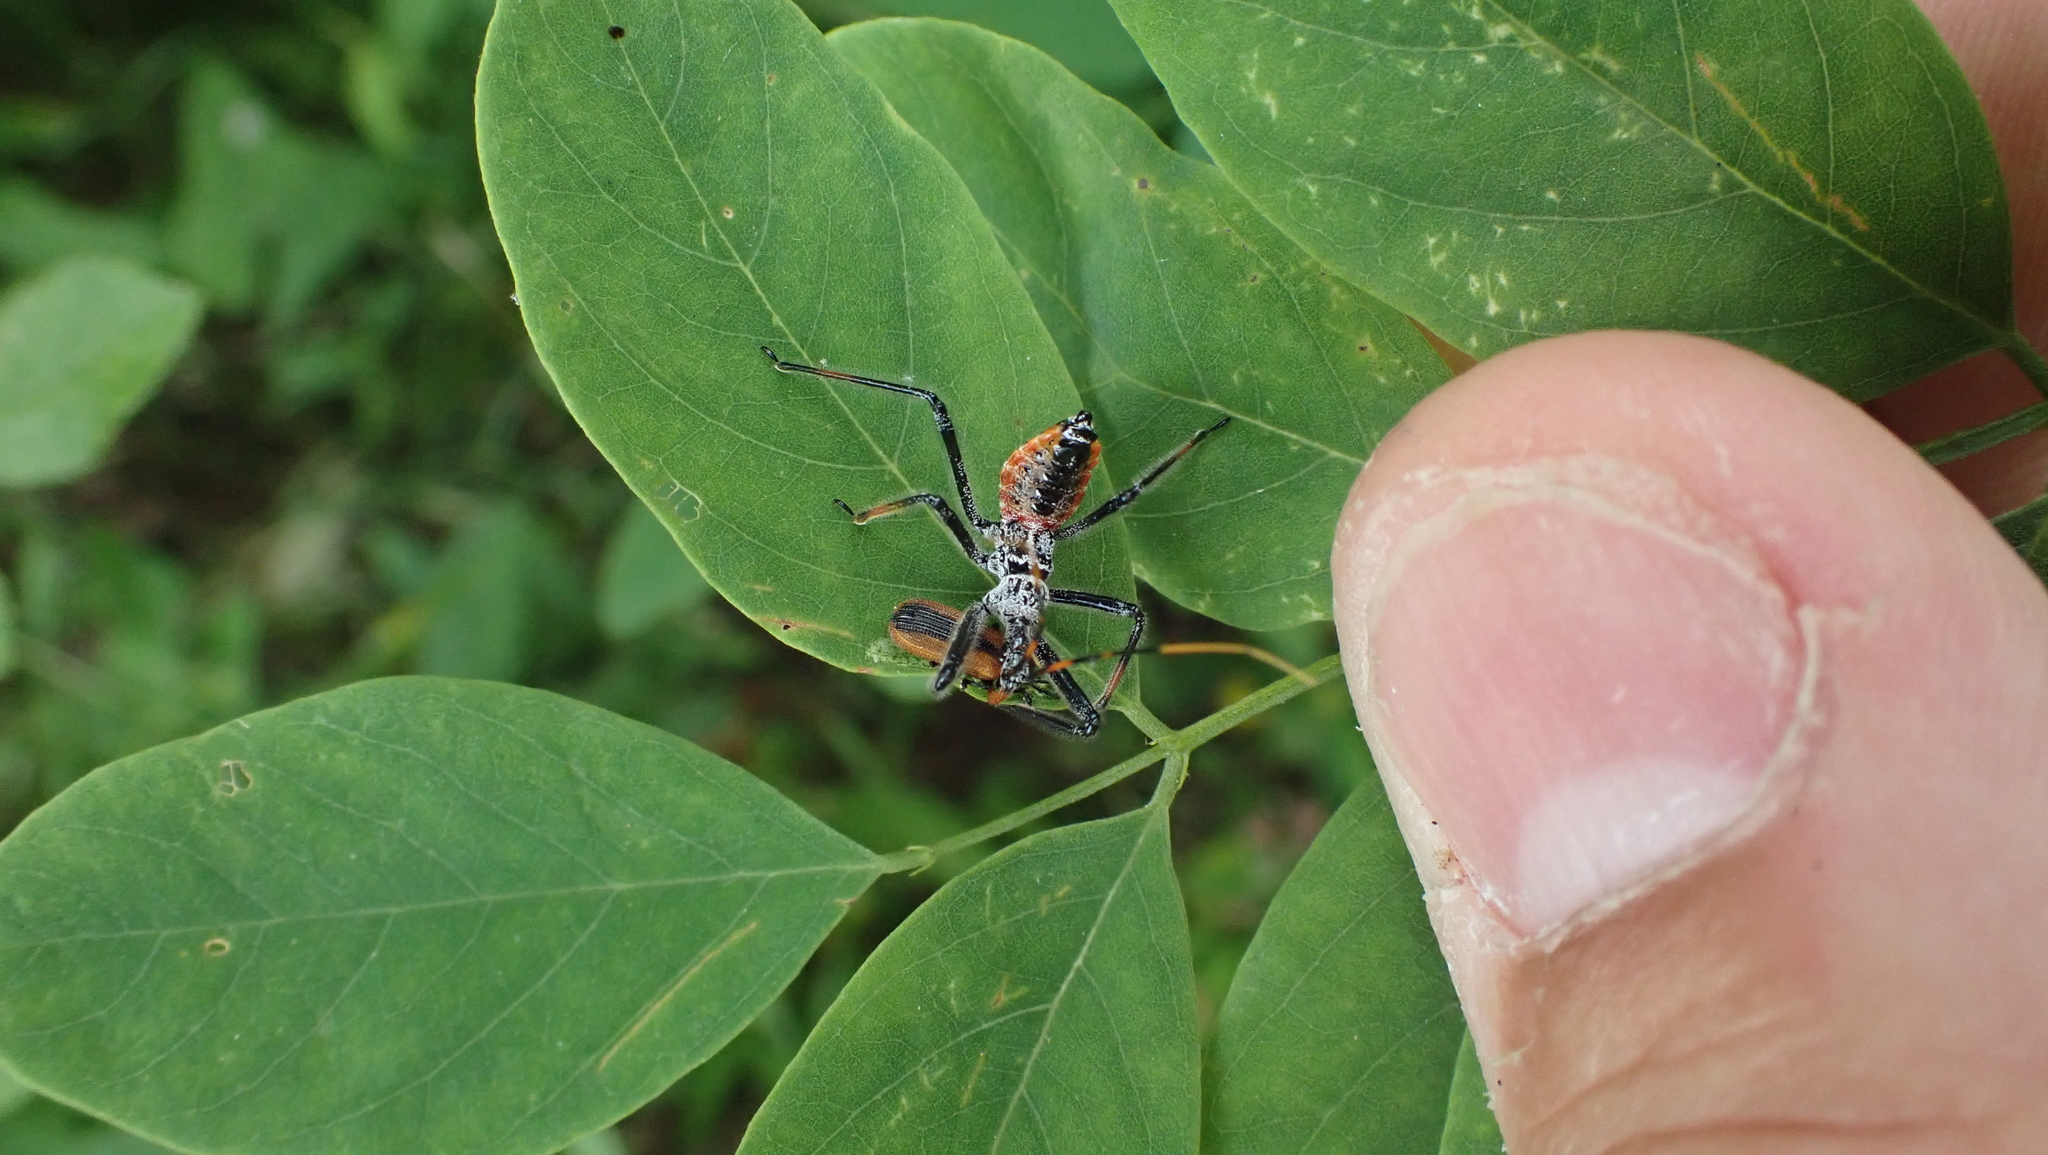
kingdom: Animalia
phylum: Arthropoda
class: Insecta
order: Hemiptera
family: Reduviidae
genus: Arilus
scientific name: Arilus cristatus
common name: North american wheel bug
